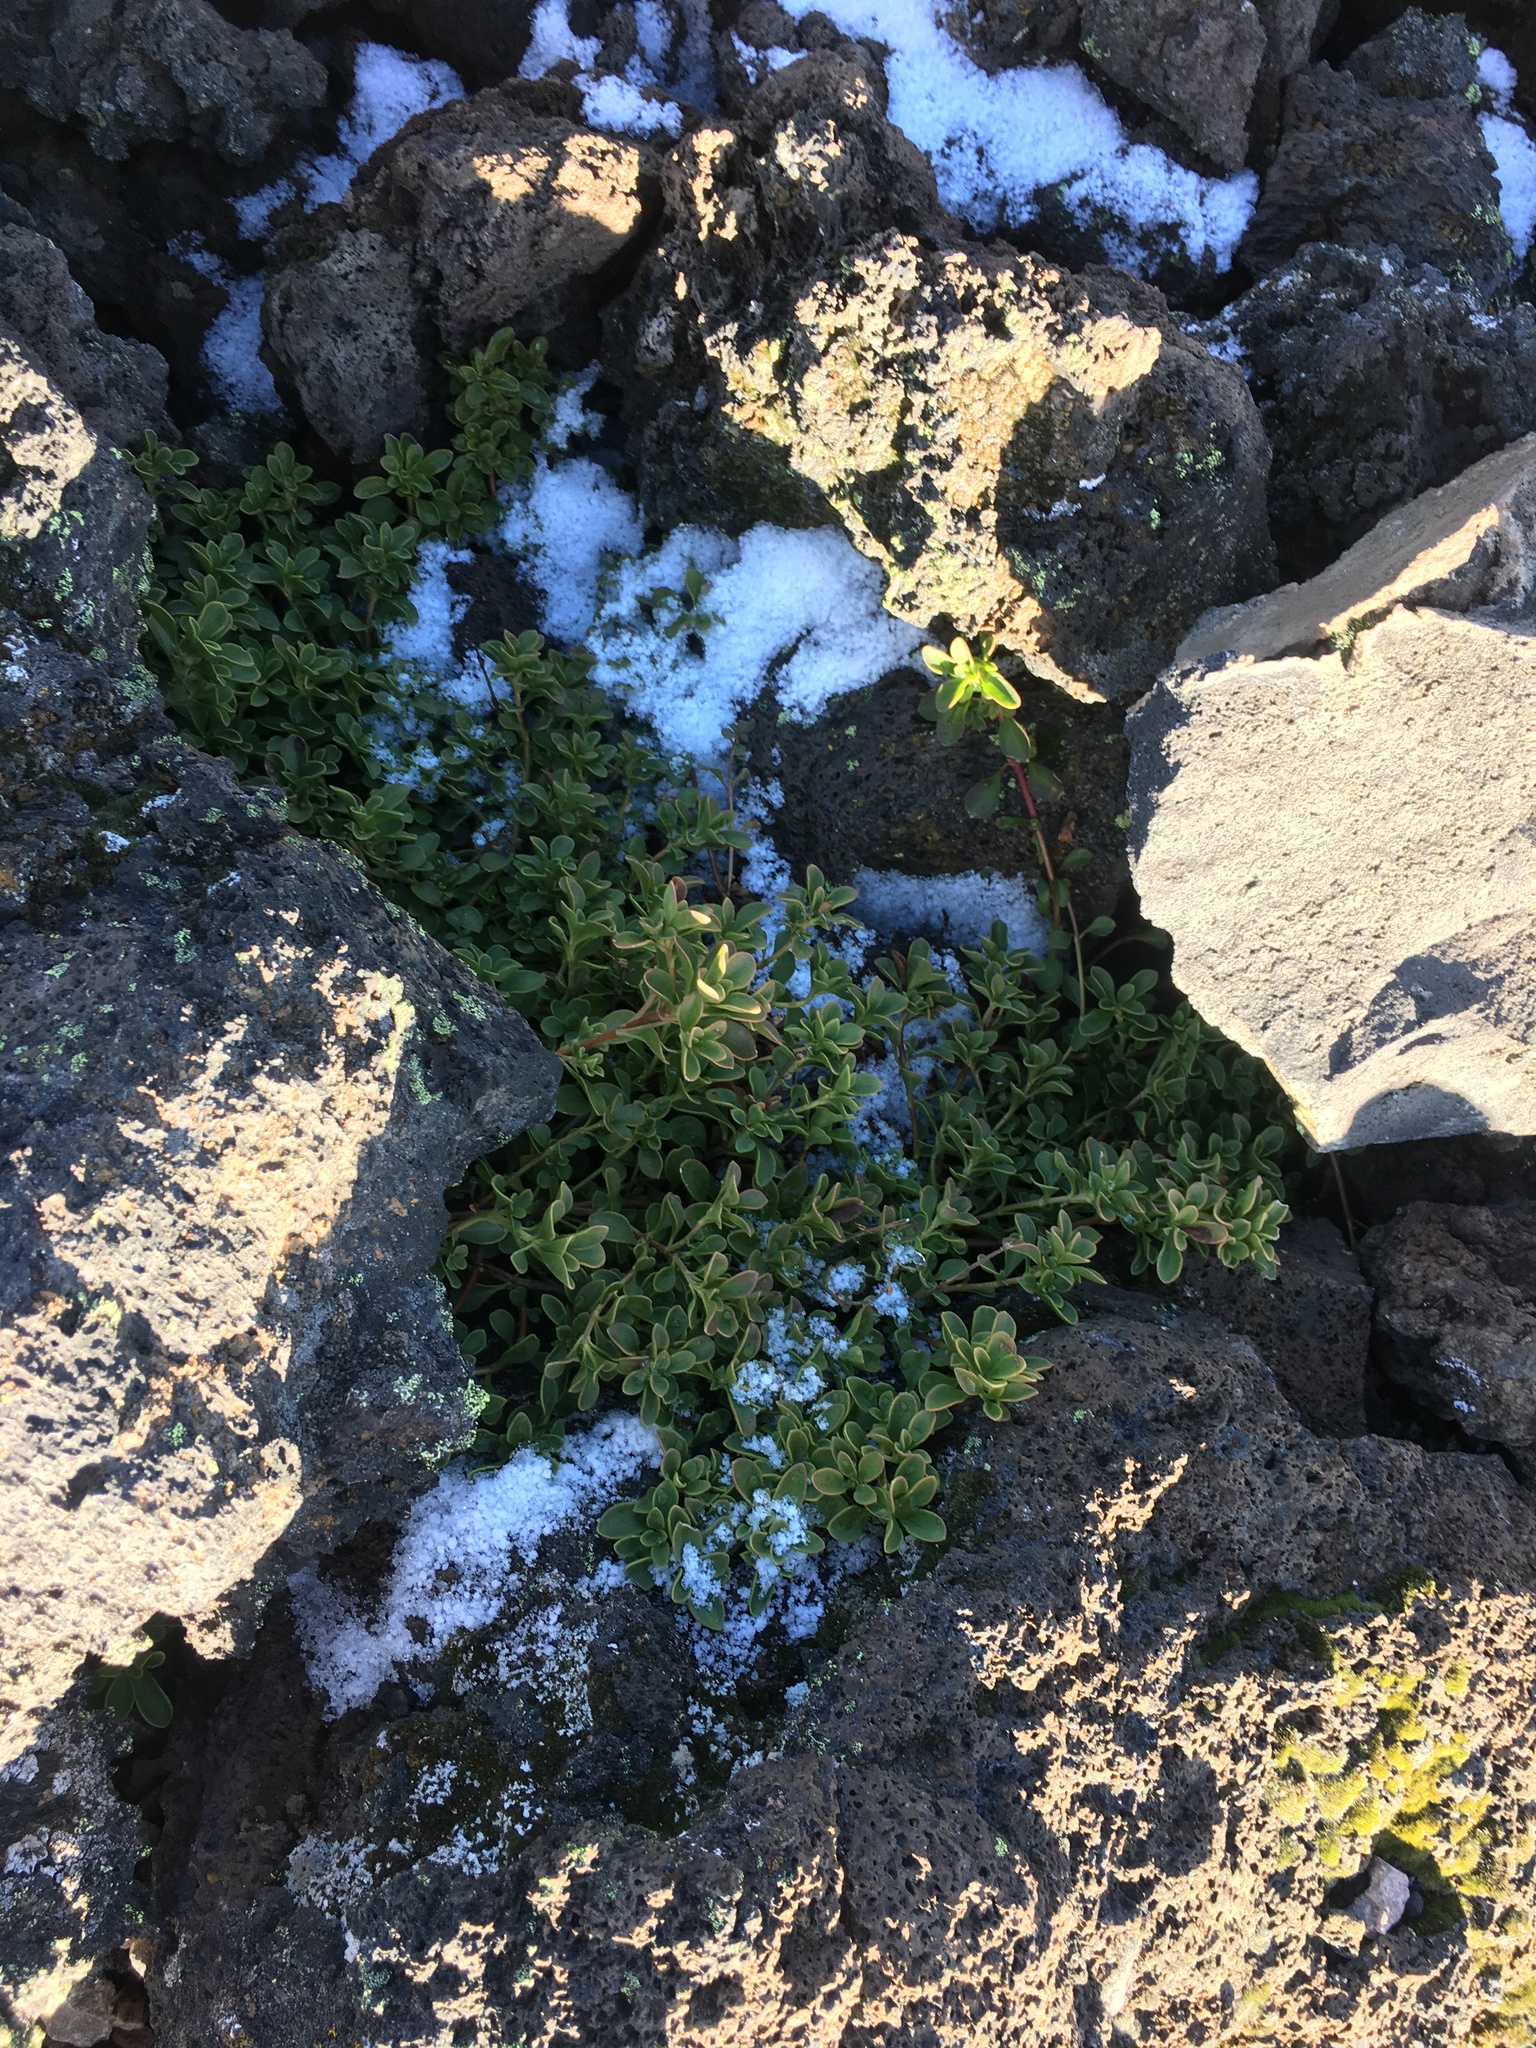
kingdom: Plantae
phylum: Tracheophyta
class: Magnoliopsida
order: Lamiales
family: Plantaginaceae
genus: Penstemon
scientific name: Penstemon davidsonii
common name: Davidson's penstemon
